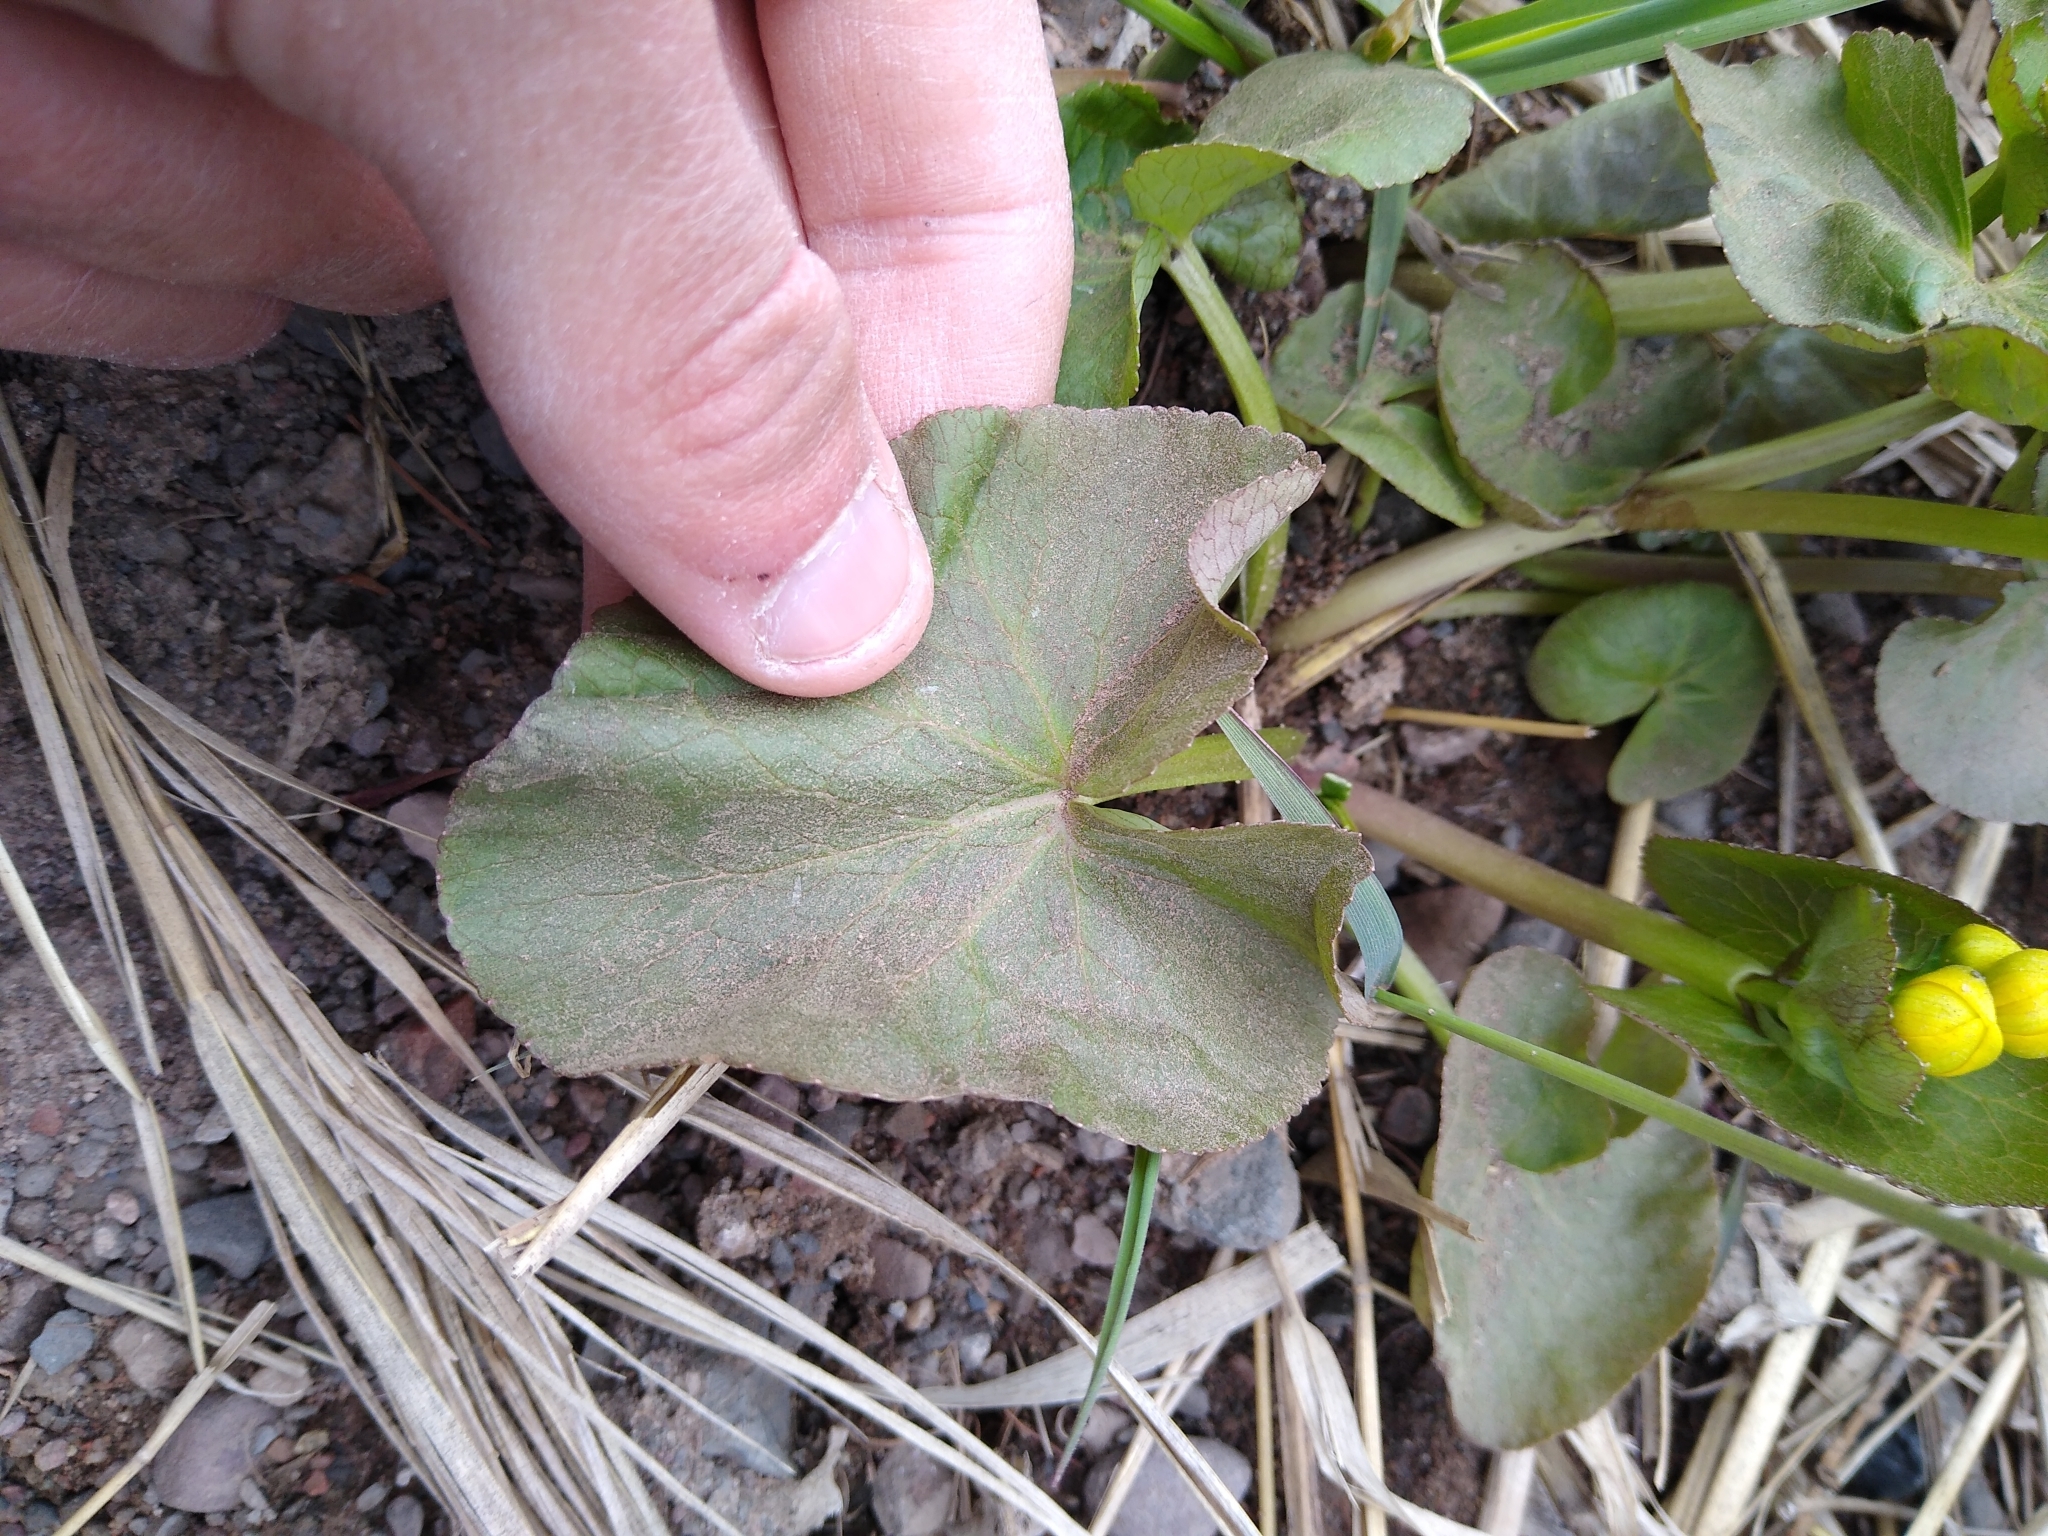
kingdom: Plantae
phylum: Tracheophyta
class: Magnoliopsida
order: Ranunculales
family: Ranunculaceae
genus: Caltha
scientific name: Caltha palustris
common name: Marsh marigold
